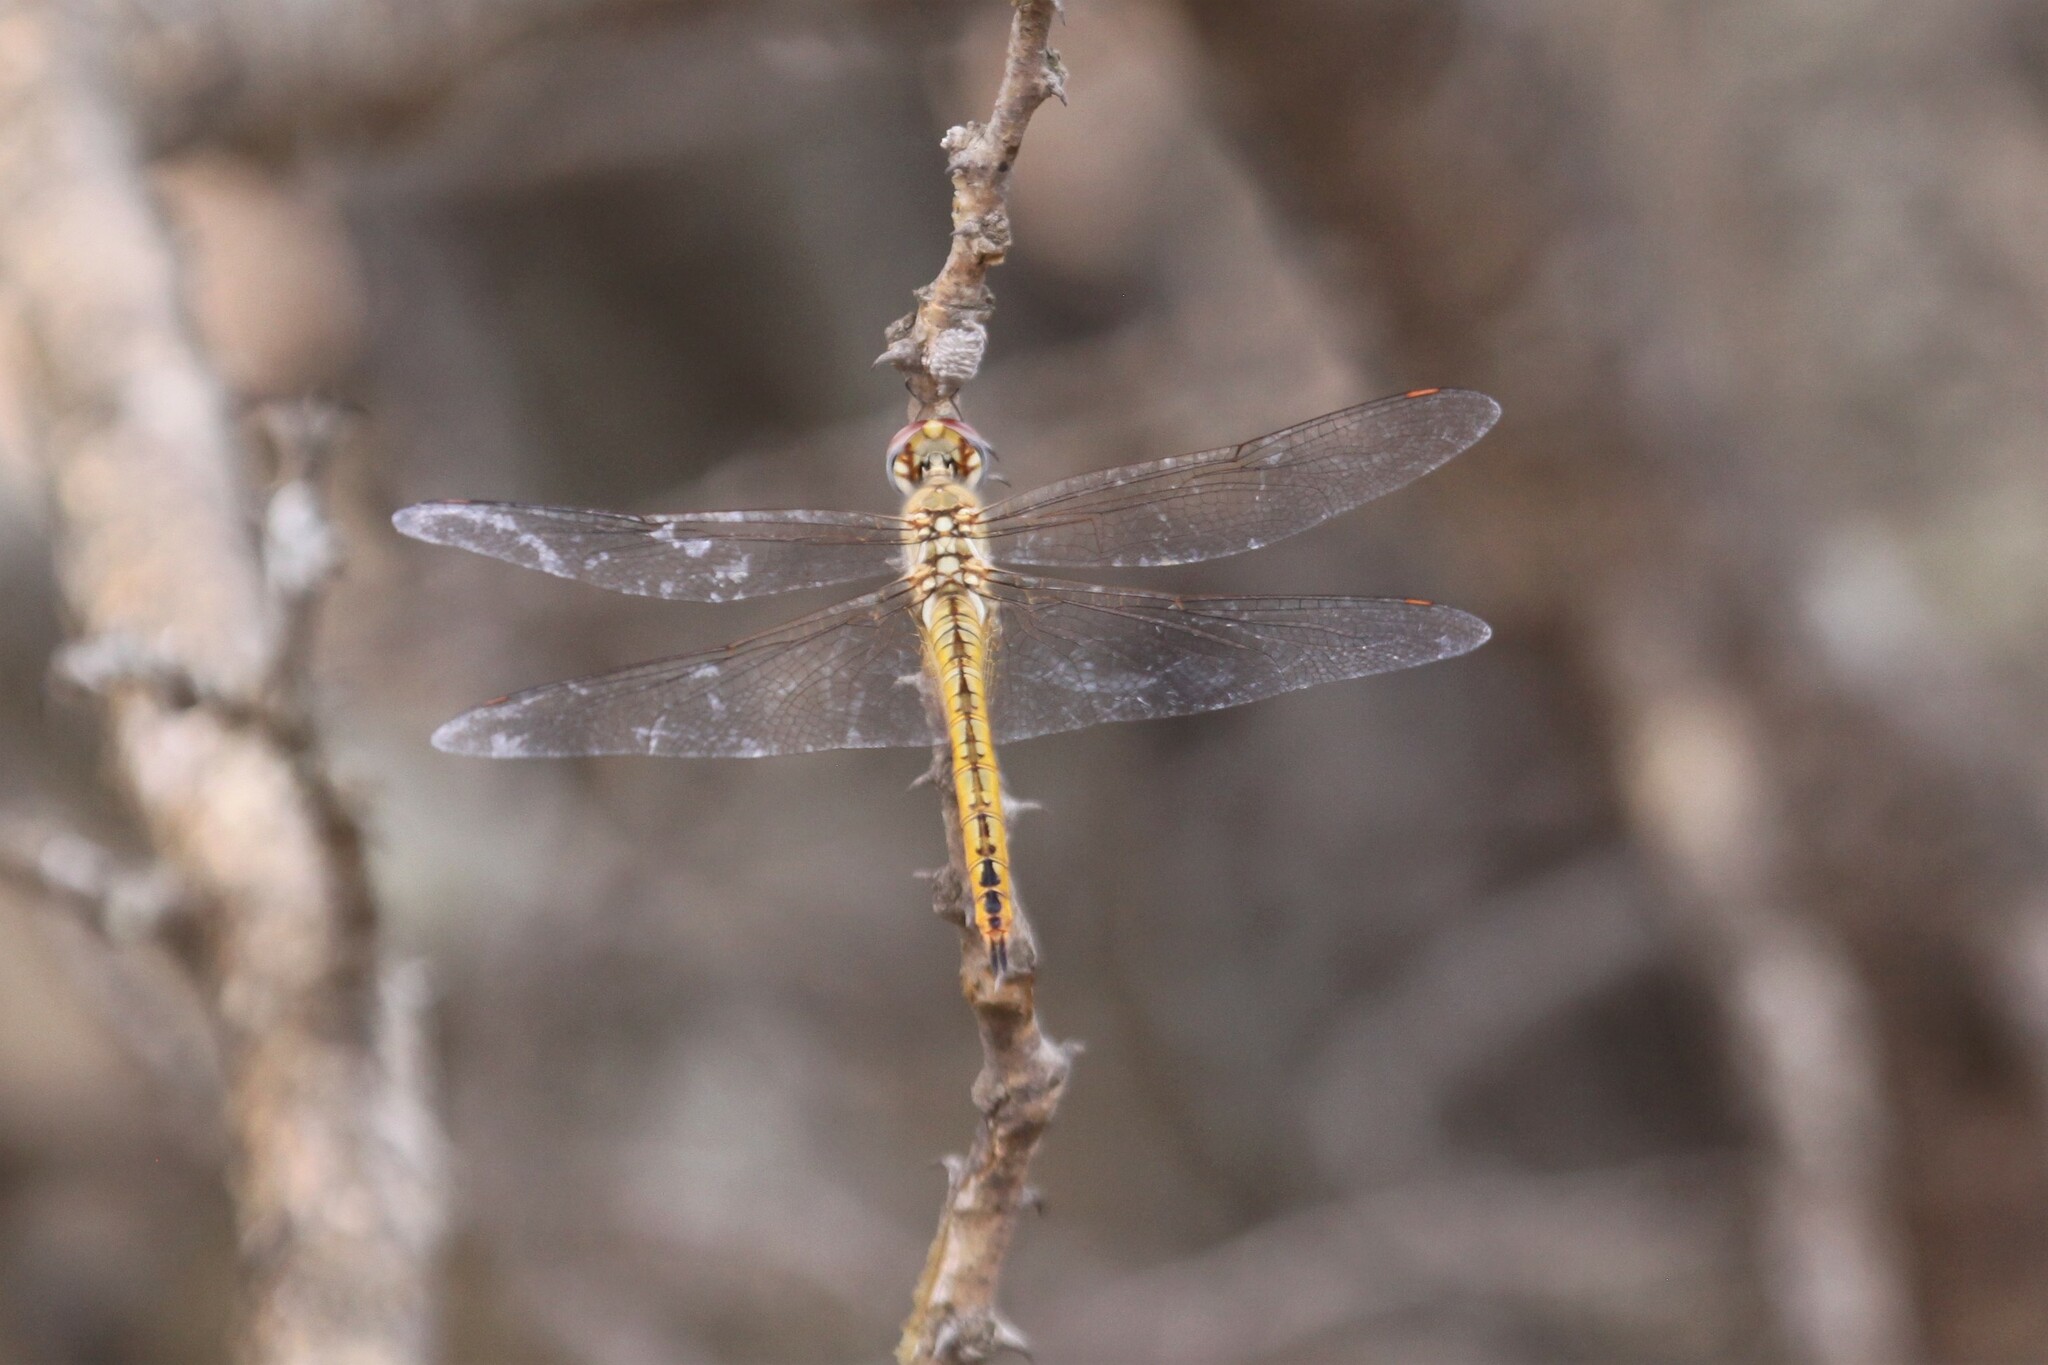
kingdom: Animalia
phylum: Arthropoda
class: Insecta
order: Odonata
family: Libellulidae
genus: Pantala
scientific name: Pantala flavescens
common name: Wandering glider
